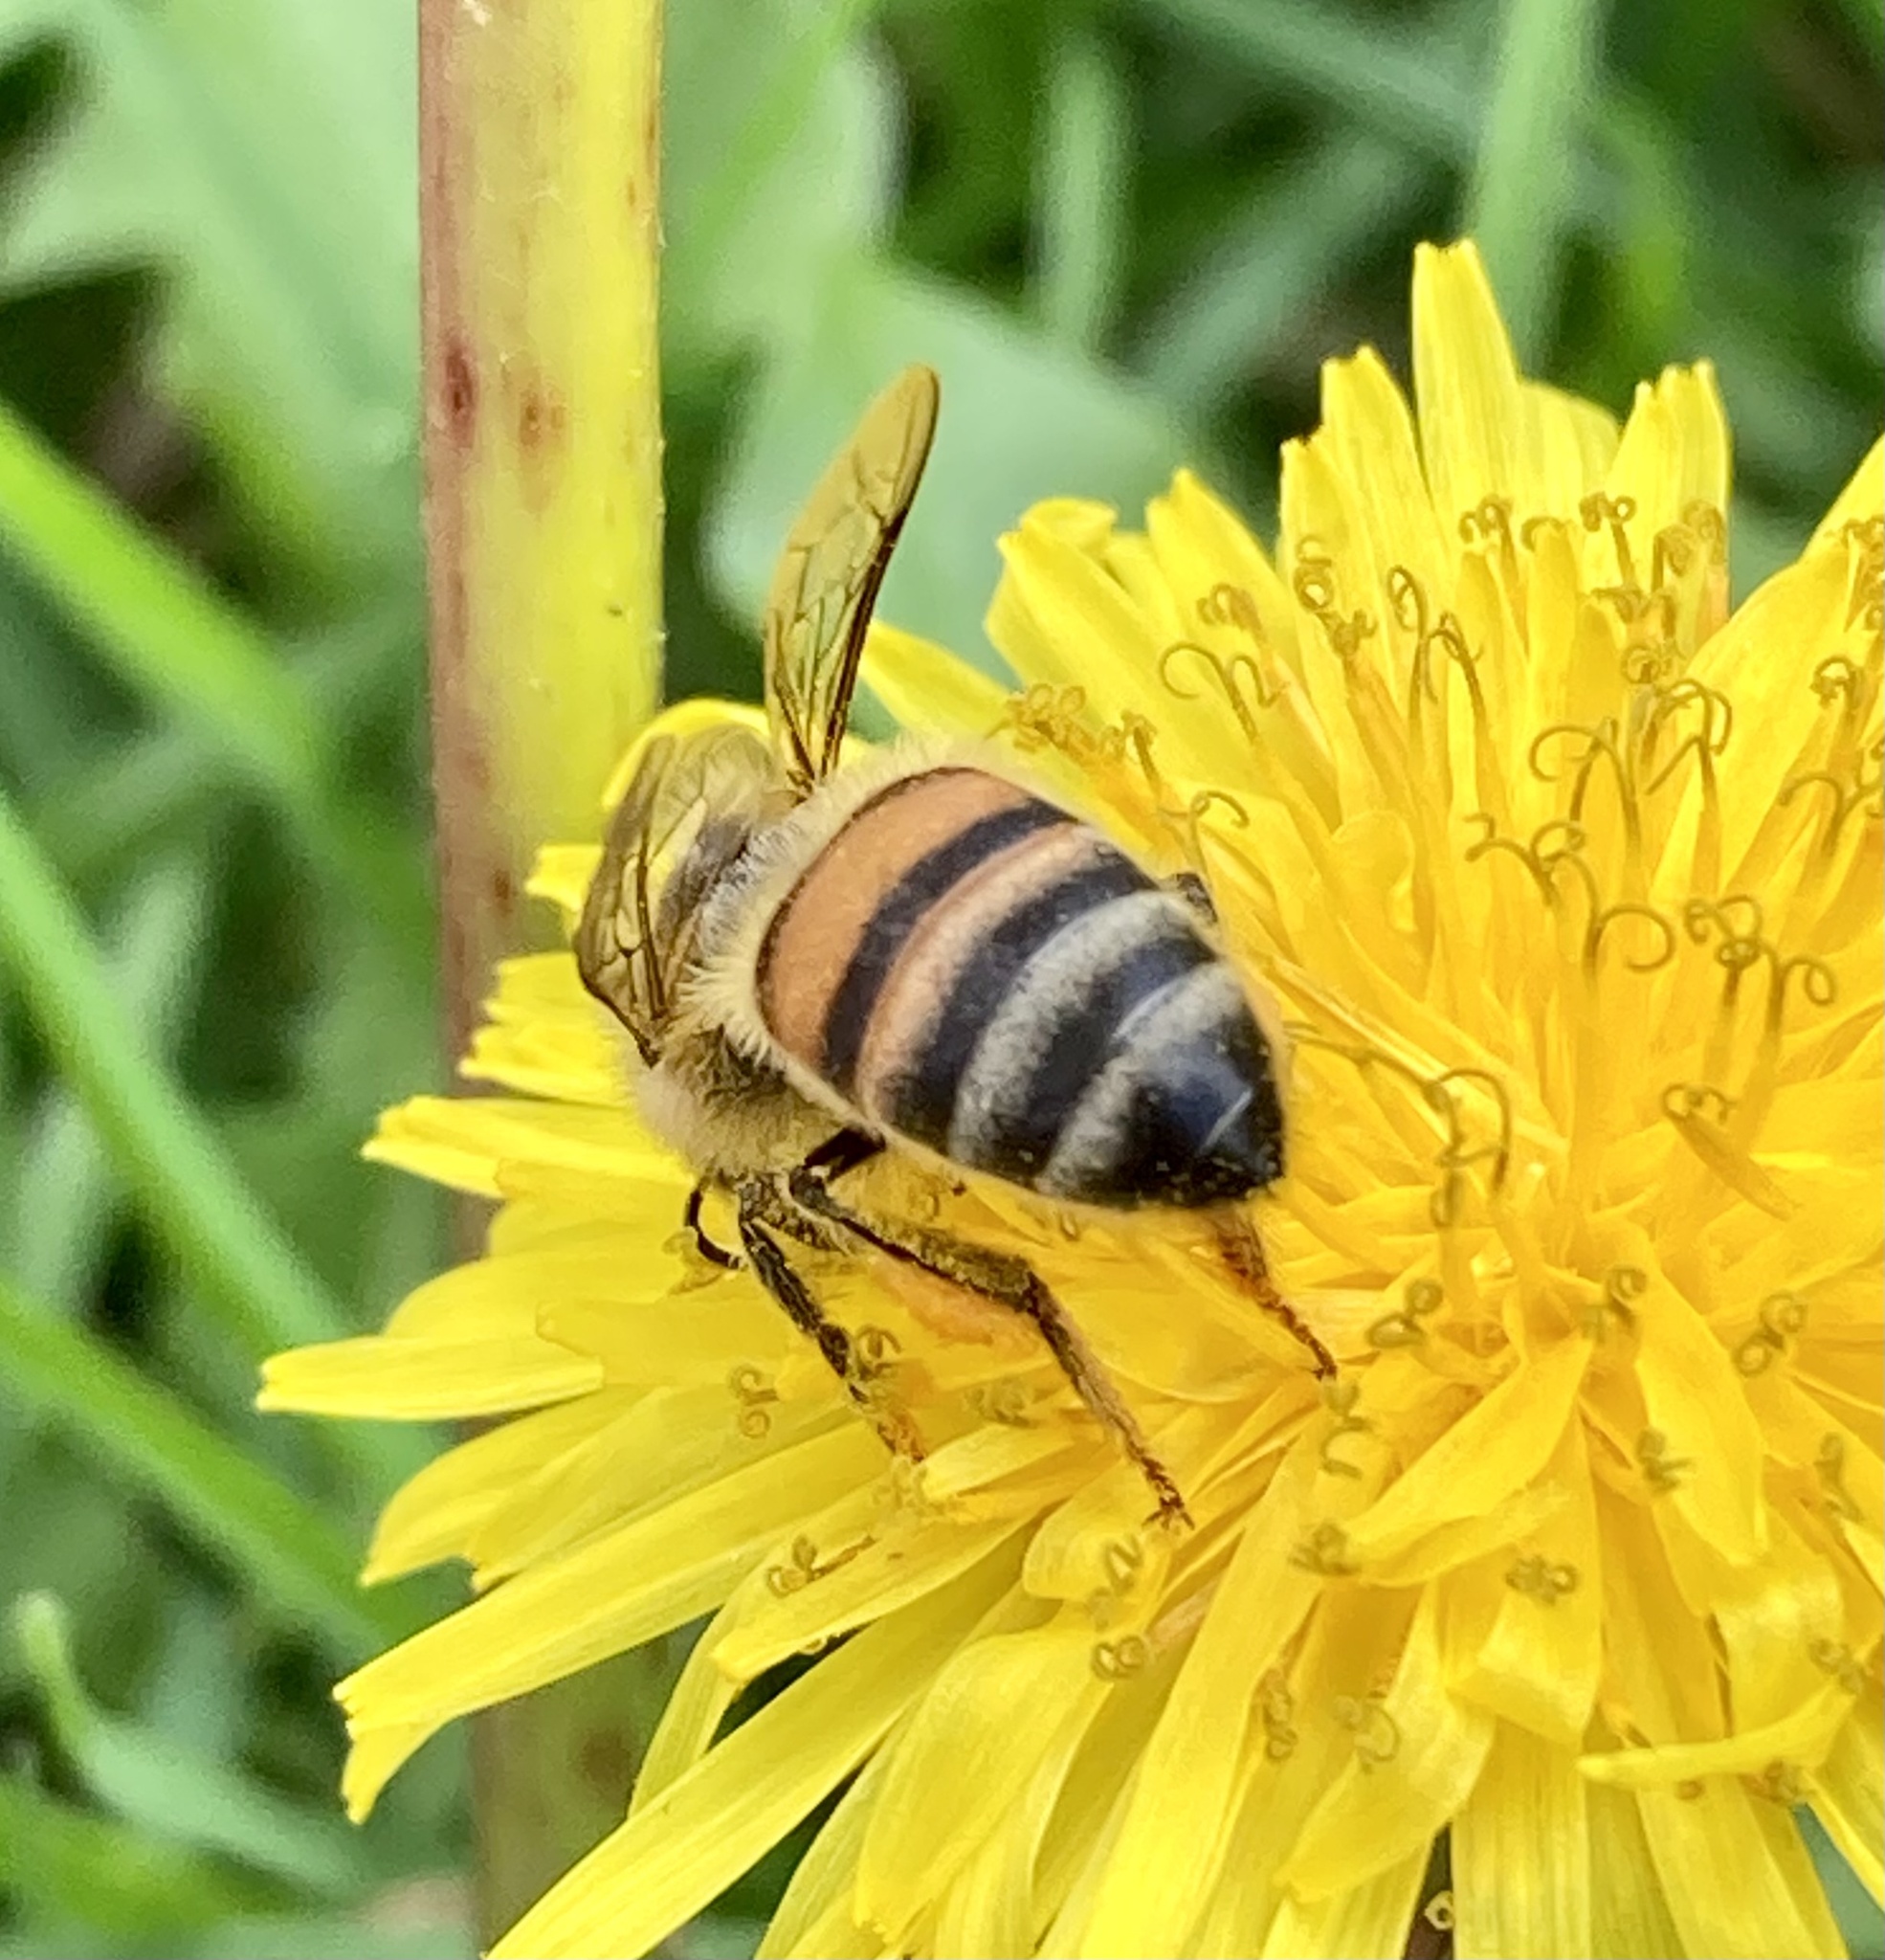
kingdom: Animalia
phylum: Arthropoda
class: Insecta
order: Hymenoptera
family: Apidae
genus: Apis
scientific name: Apis mellifera
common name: Honey bee
